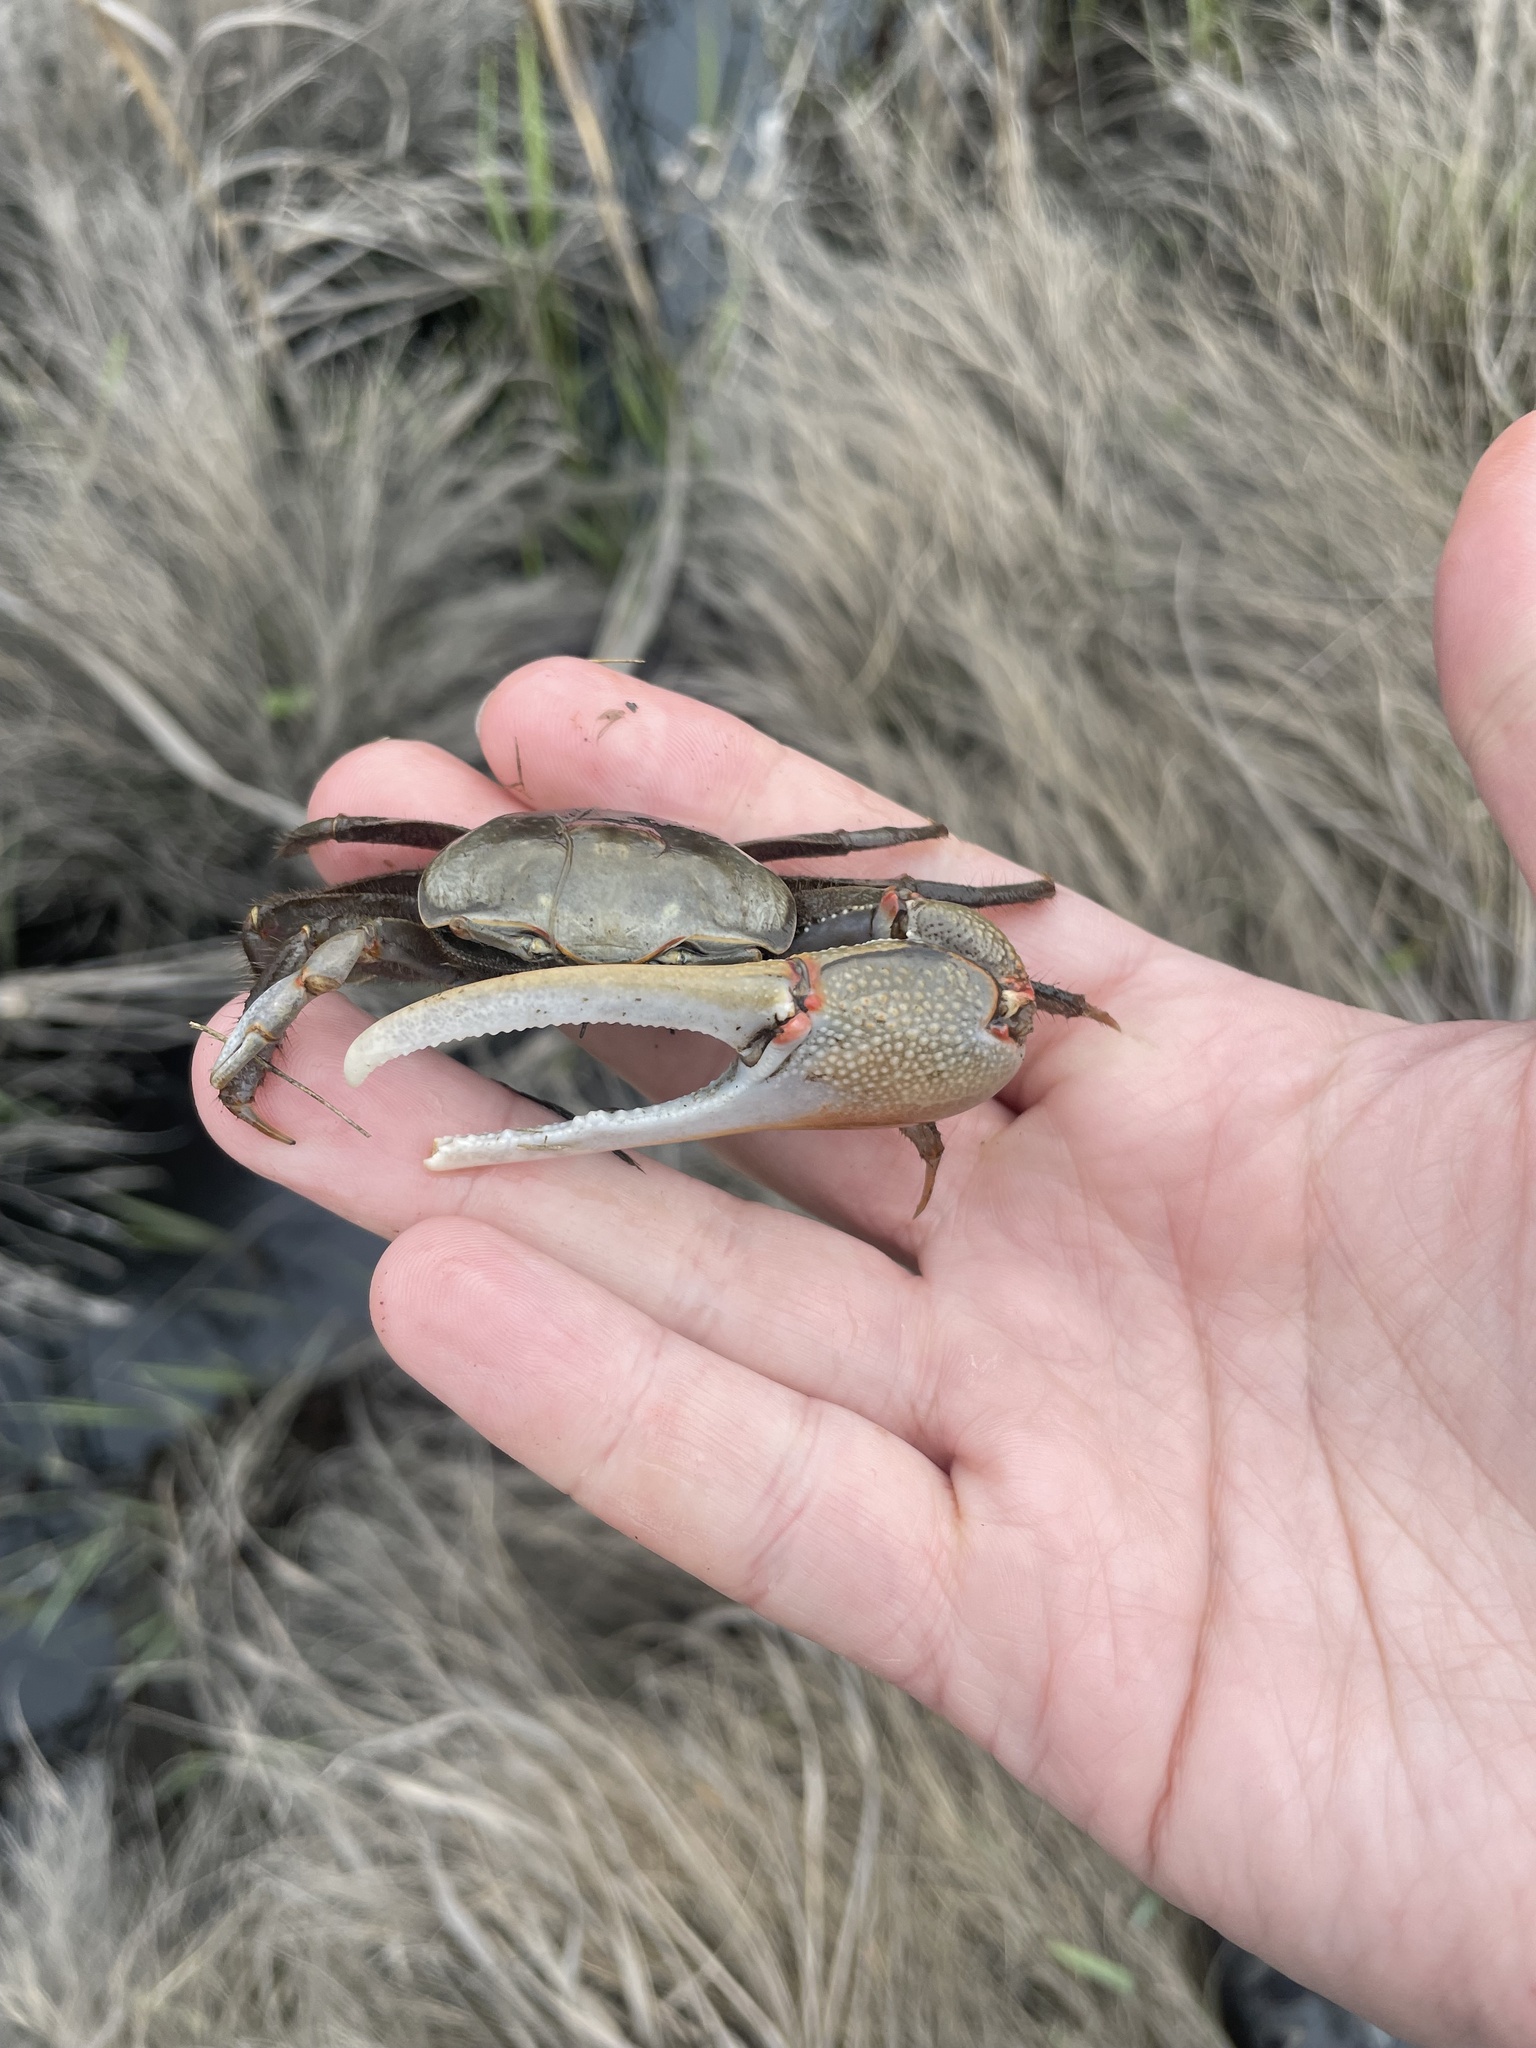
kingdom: Animalia
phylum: Arthropoda
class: Malacostraca
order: Decapoda
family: Ocypodidae
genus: Minuca
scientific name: Minuca minax
